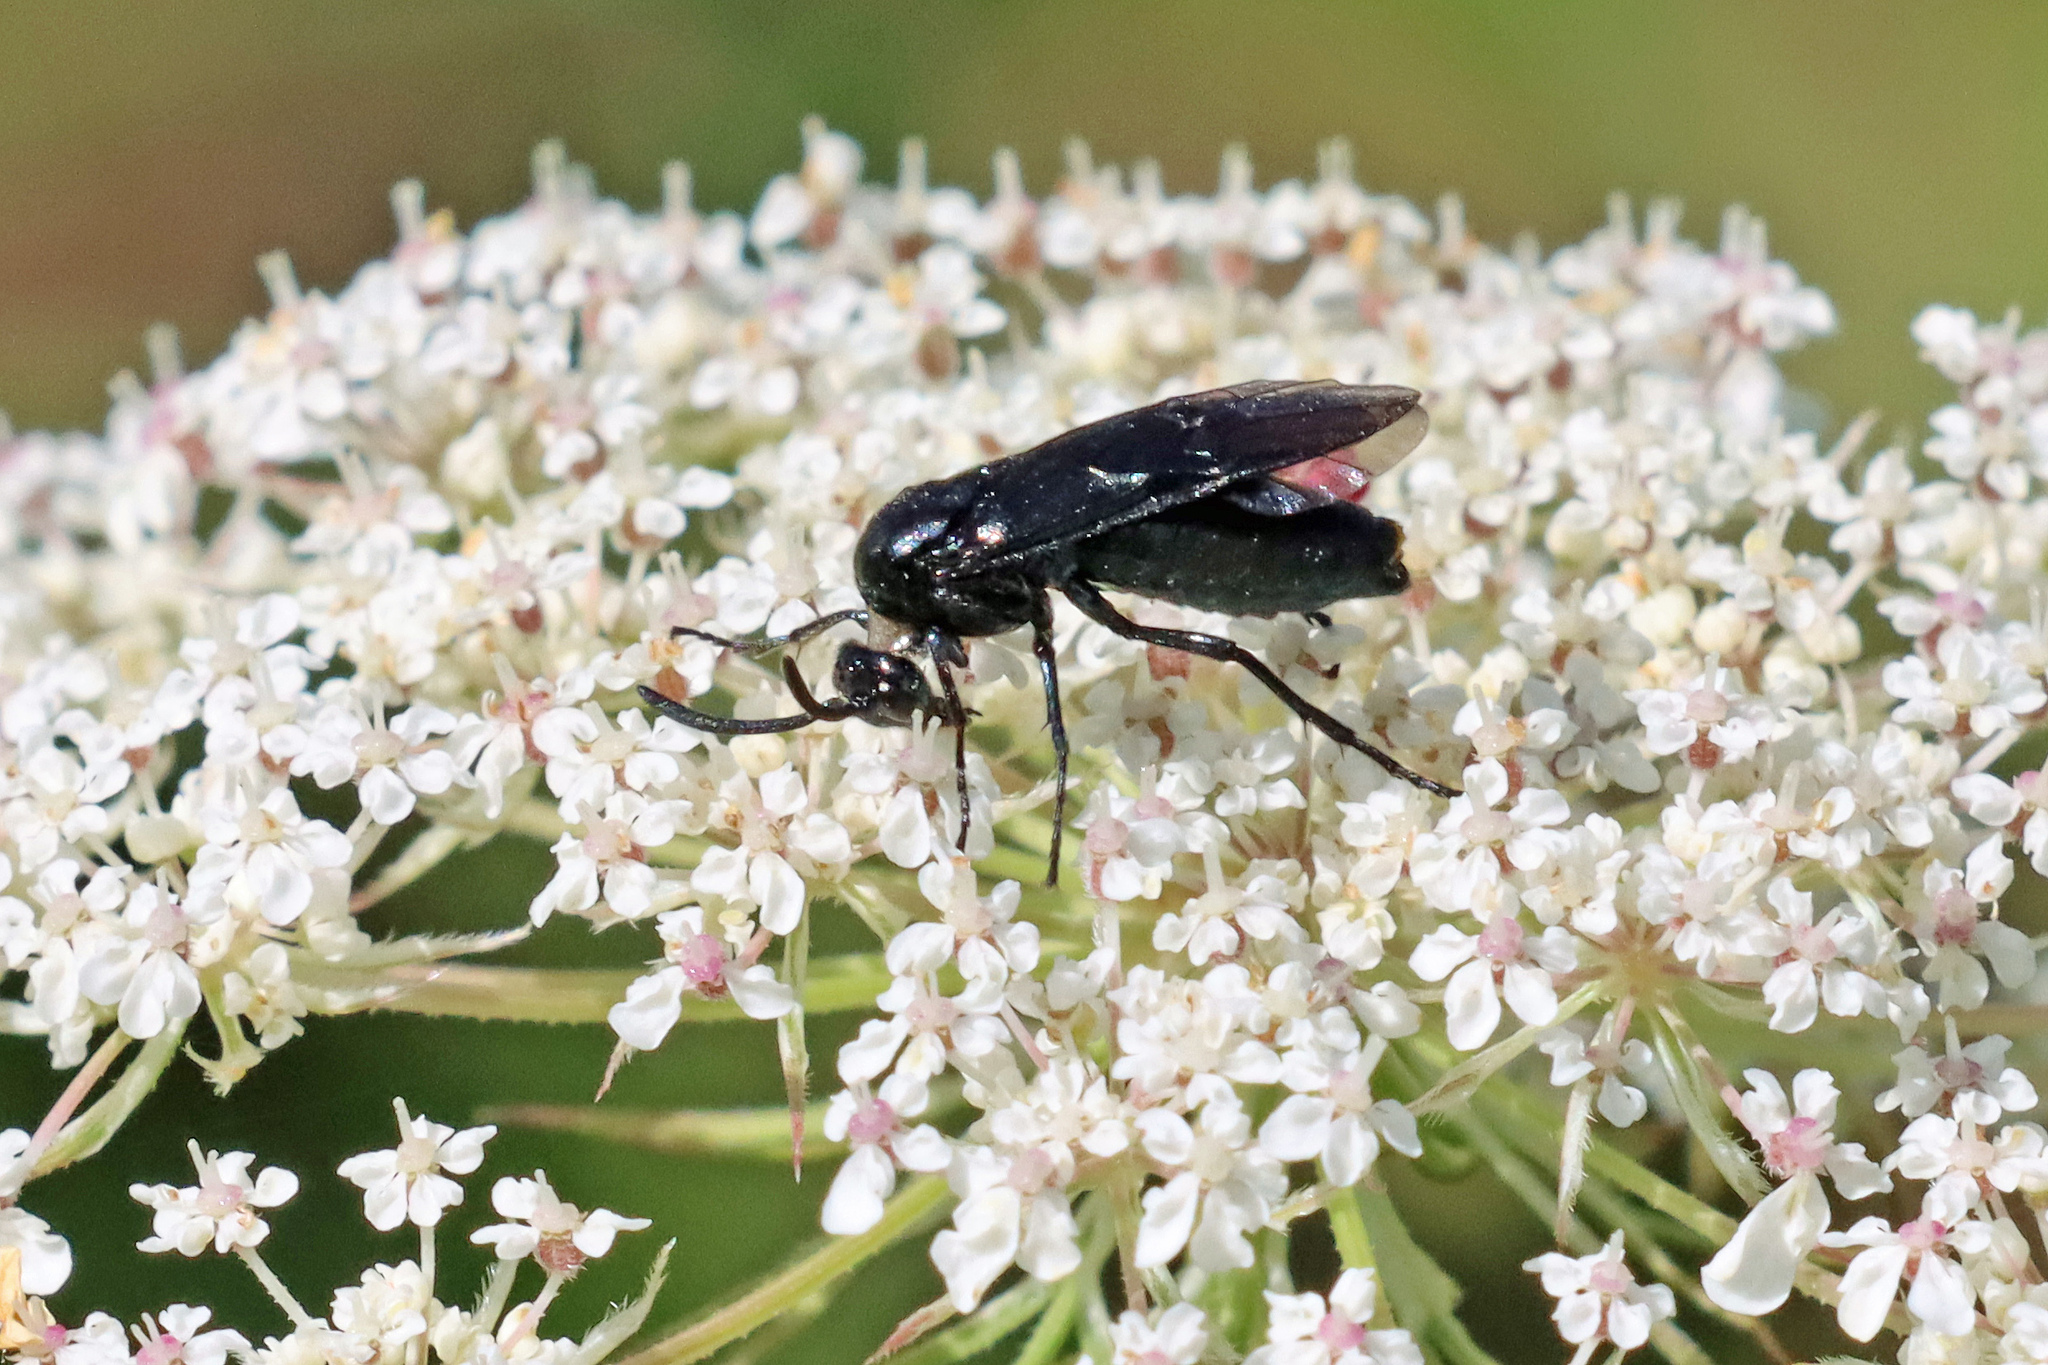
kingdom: Animalia
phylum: Arthropoda
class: Insecta
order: Hymenoptera
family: Argidae
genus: Arge
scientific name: Arge berberidis
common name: Berberis sawfly
